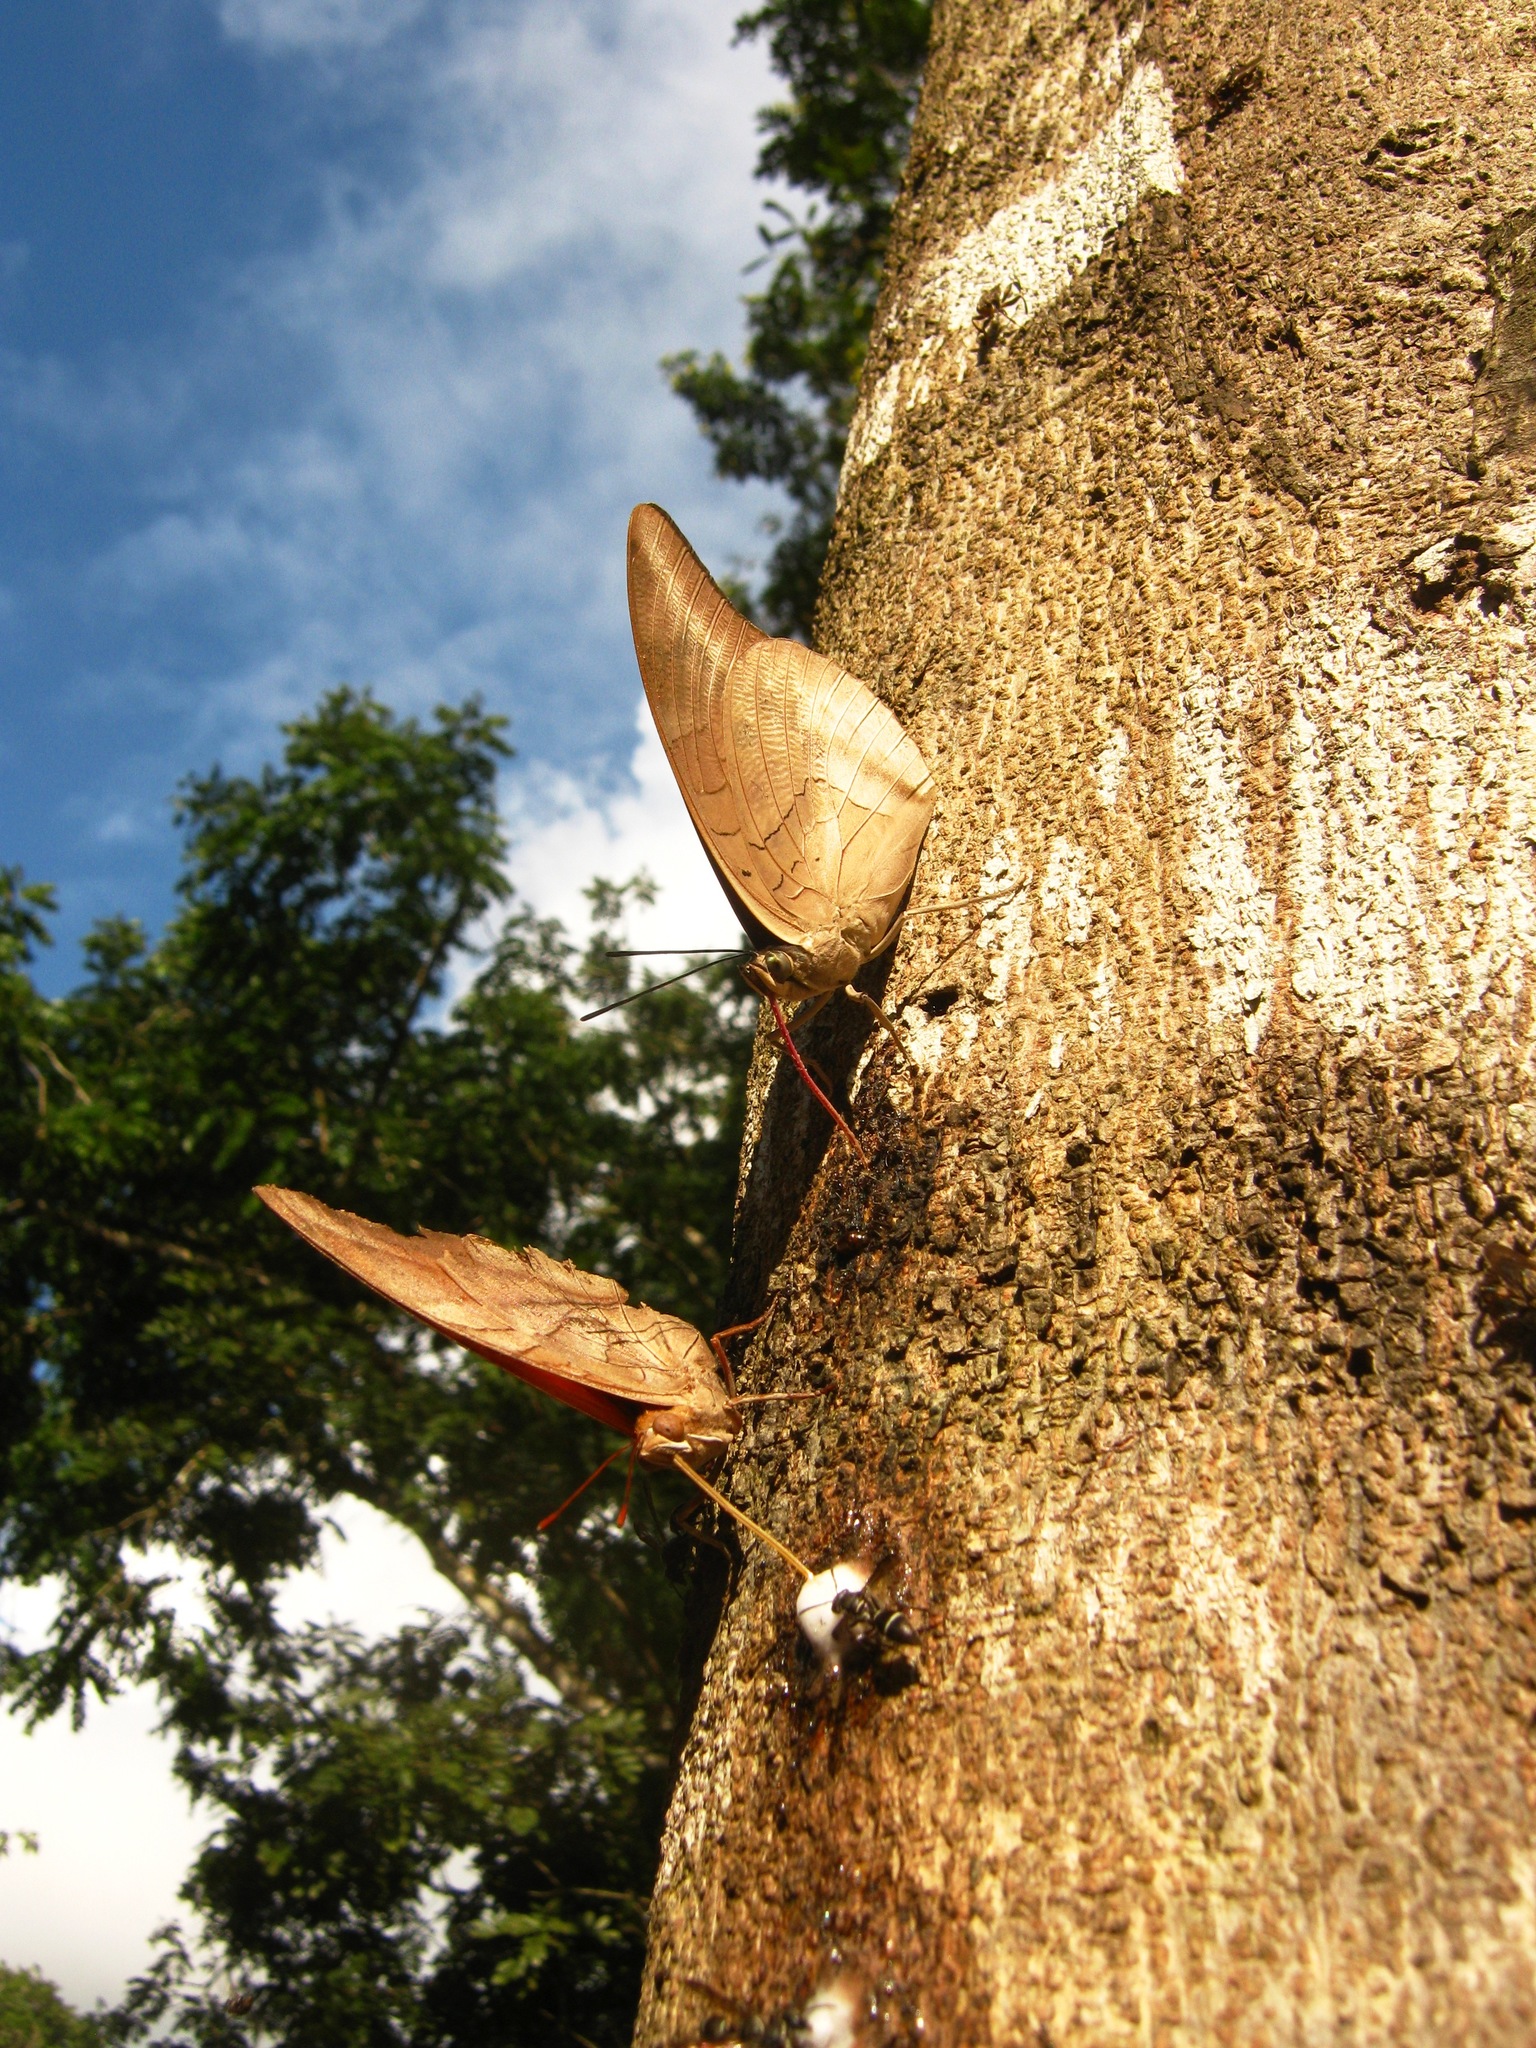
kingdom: Animalia
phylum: Arthropoda
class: Insecta
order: Lepidoptera
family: Nymphalidae
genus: Prepona
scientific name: Prepona demophon
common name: One-spotted prepona
